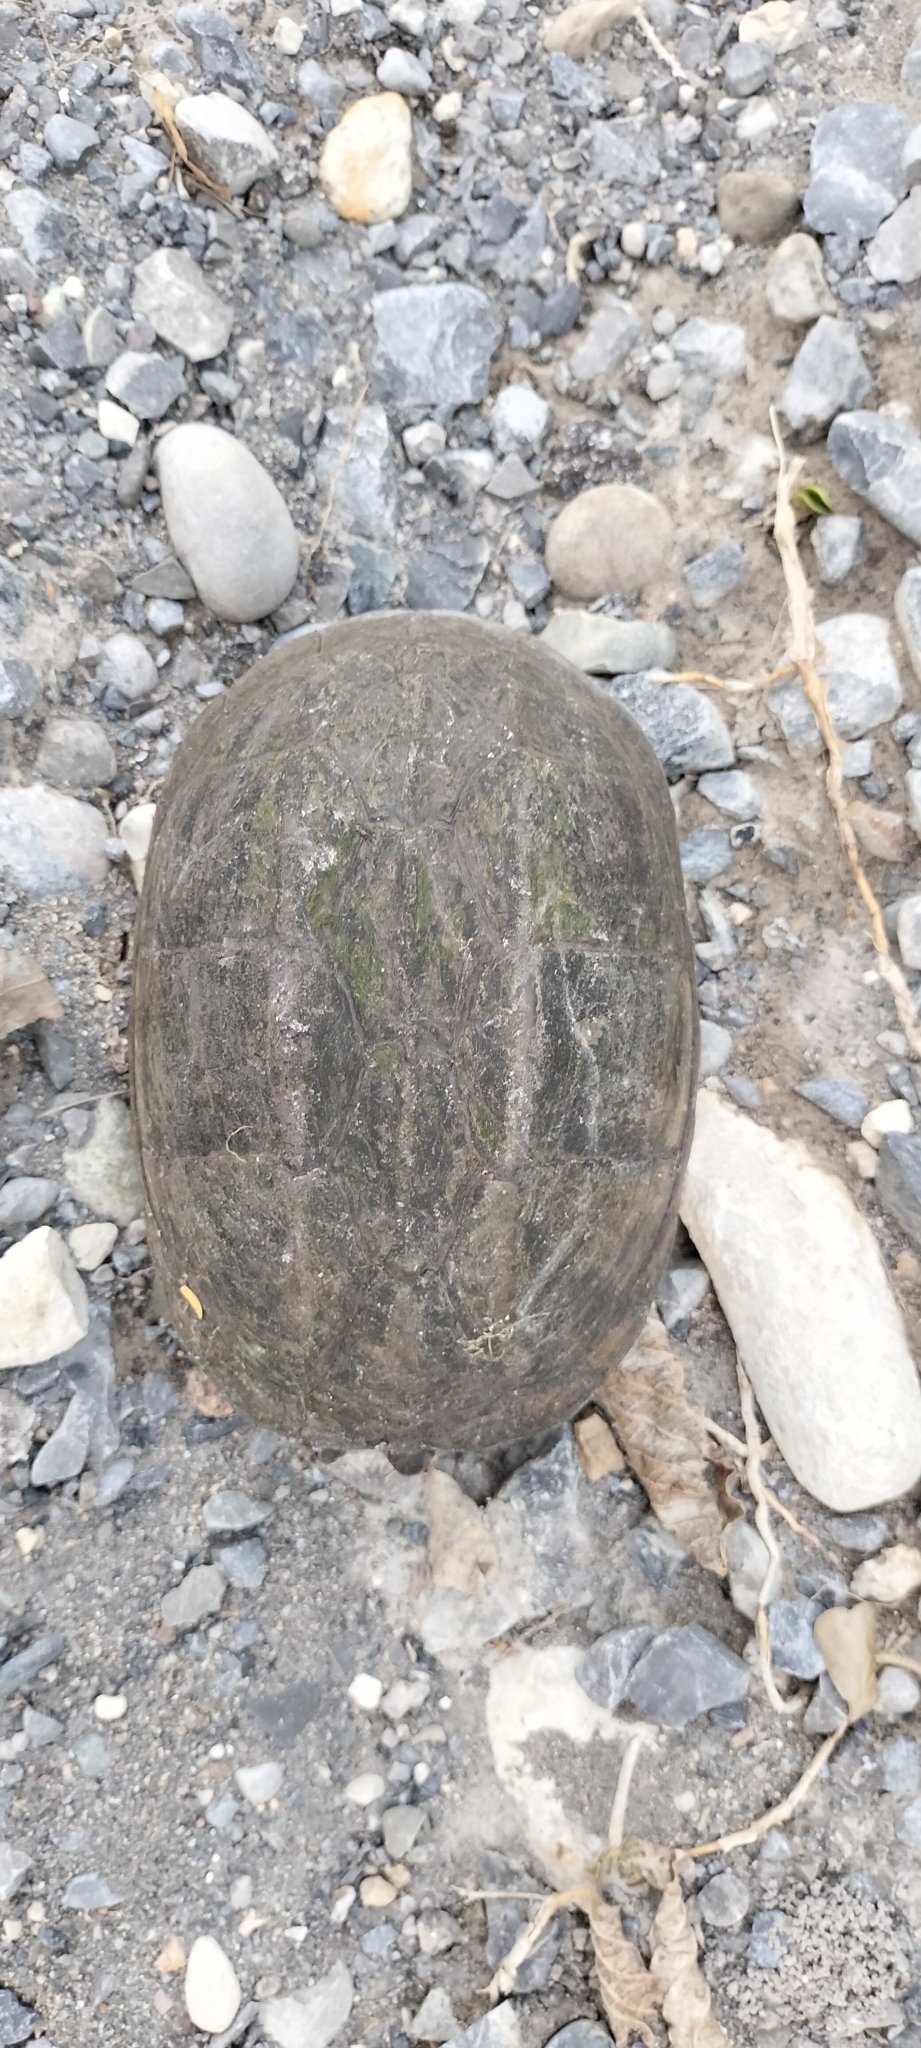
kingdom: Animalia
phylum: Chordata
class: Testudines
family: Kinosternidae
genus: Kinosternon
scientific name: Kinosternon scorpioides
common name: Scorpion mud turtle
